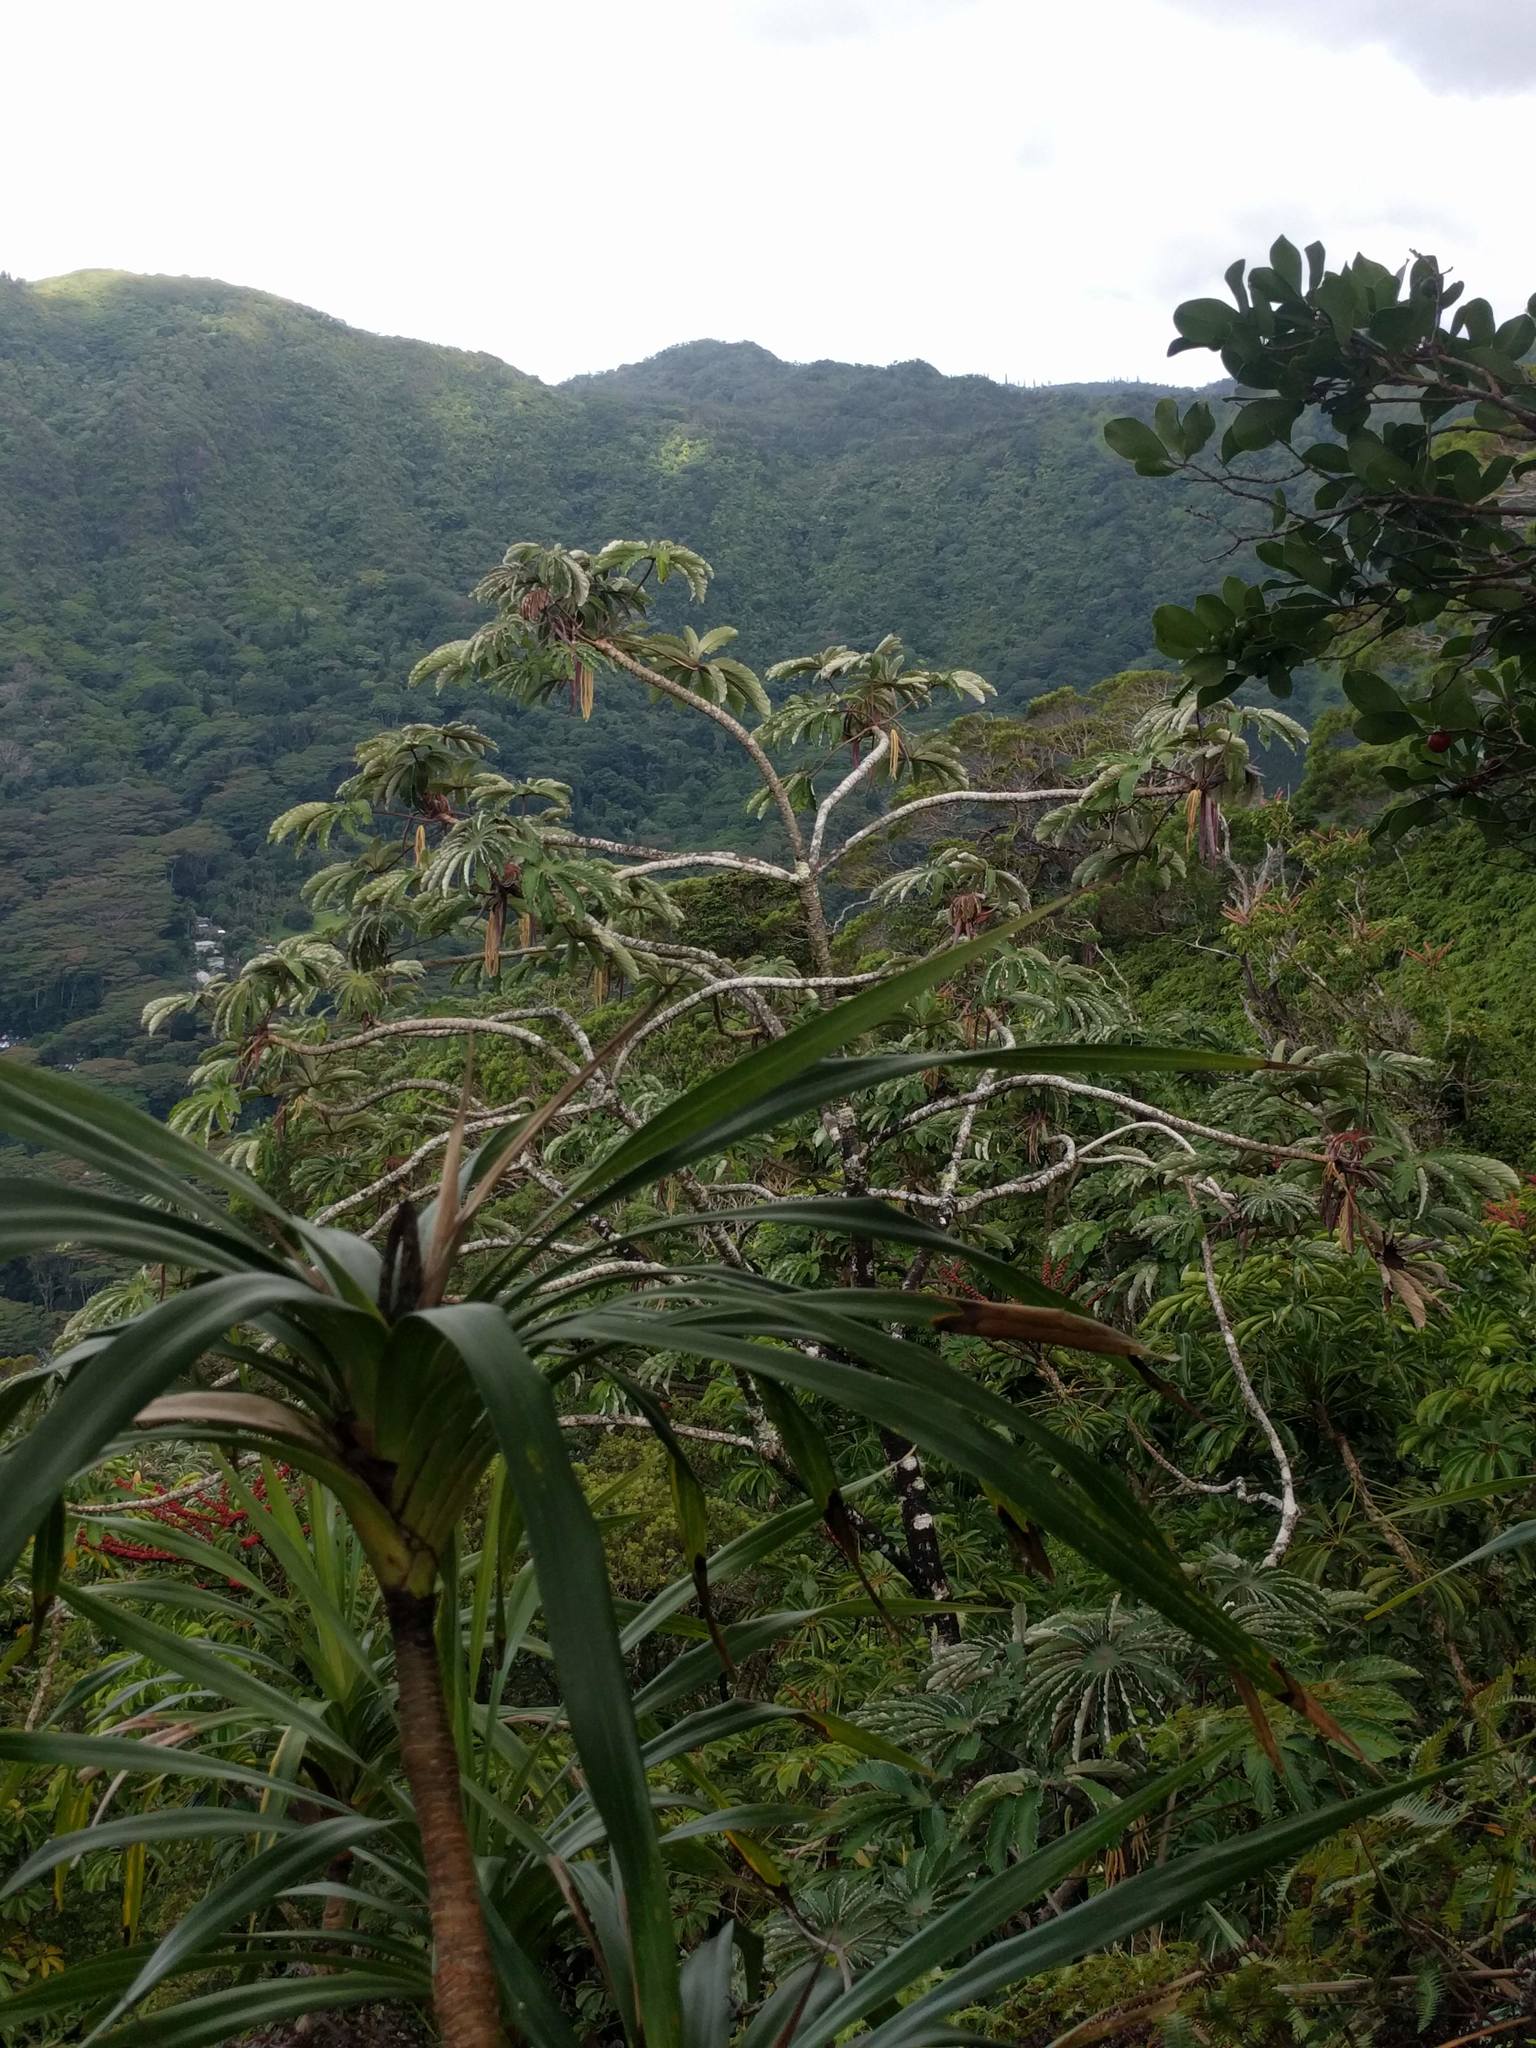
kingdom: Plantae
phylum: Tracheophyta
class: Magnoliopsida
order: Rosales
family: Urticaceae
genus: Cecropia
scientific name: Cecropia obtusifolia
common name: Trumpet tree
